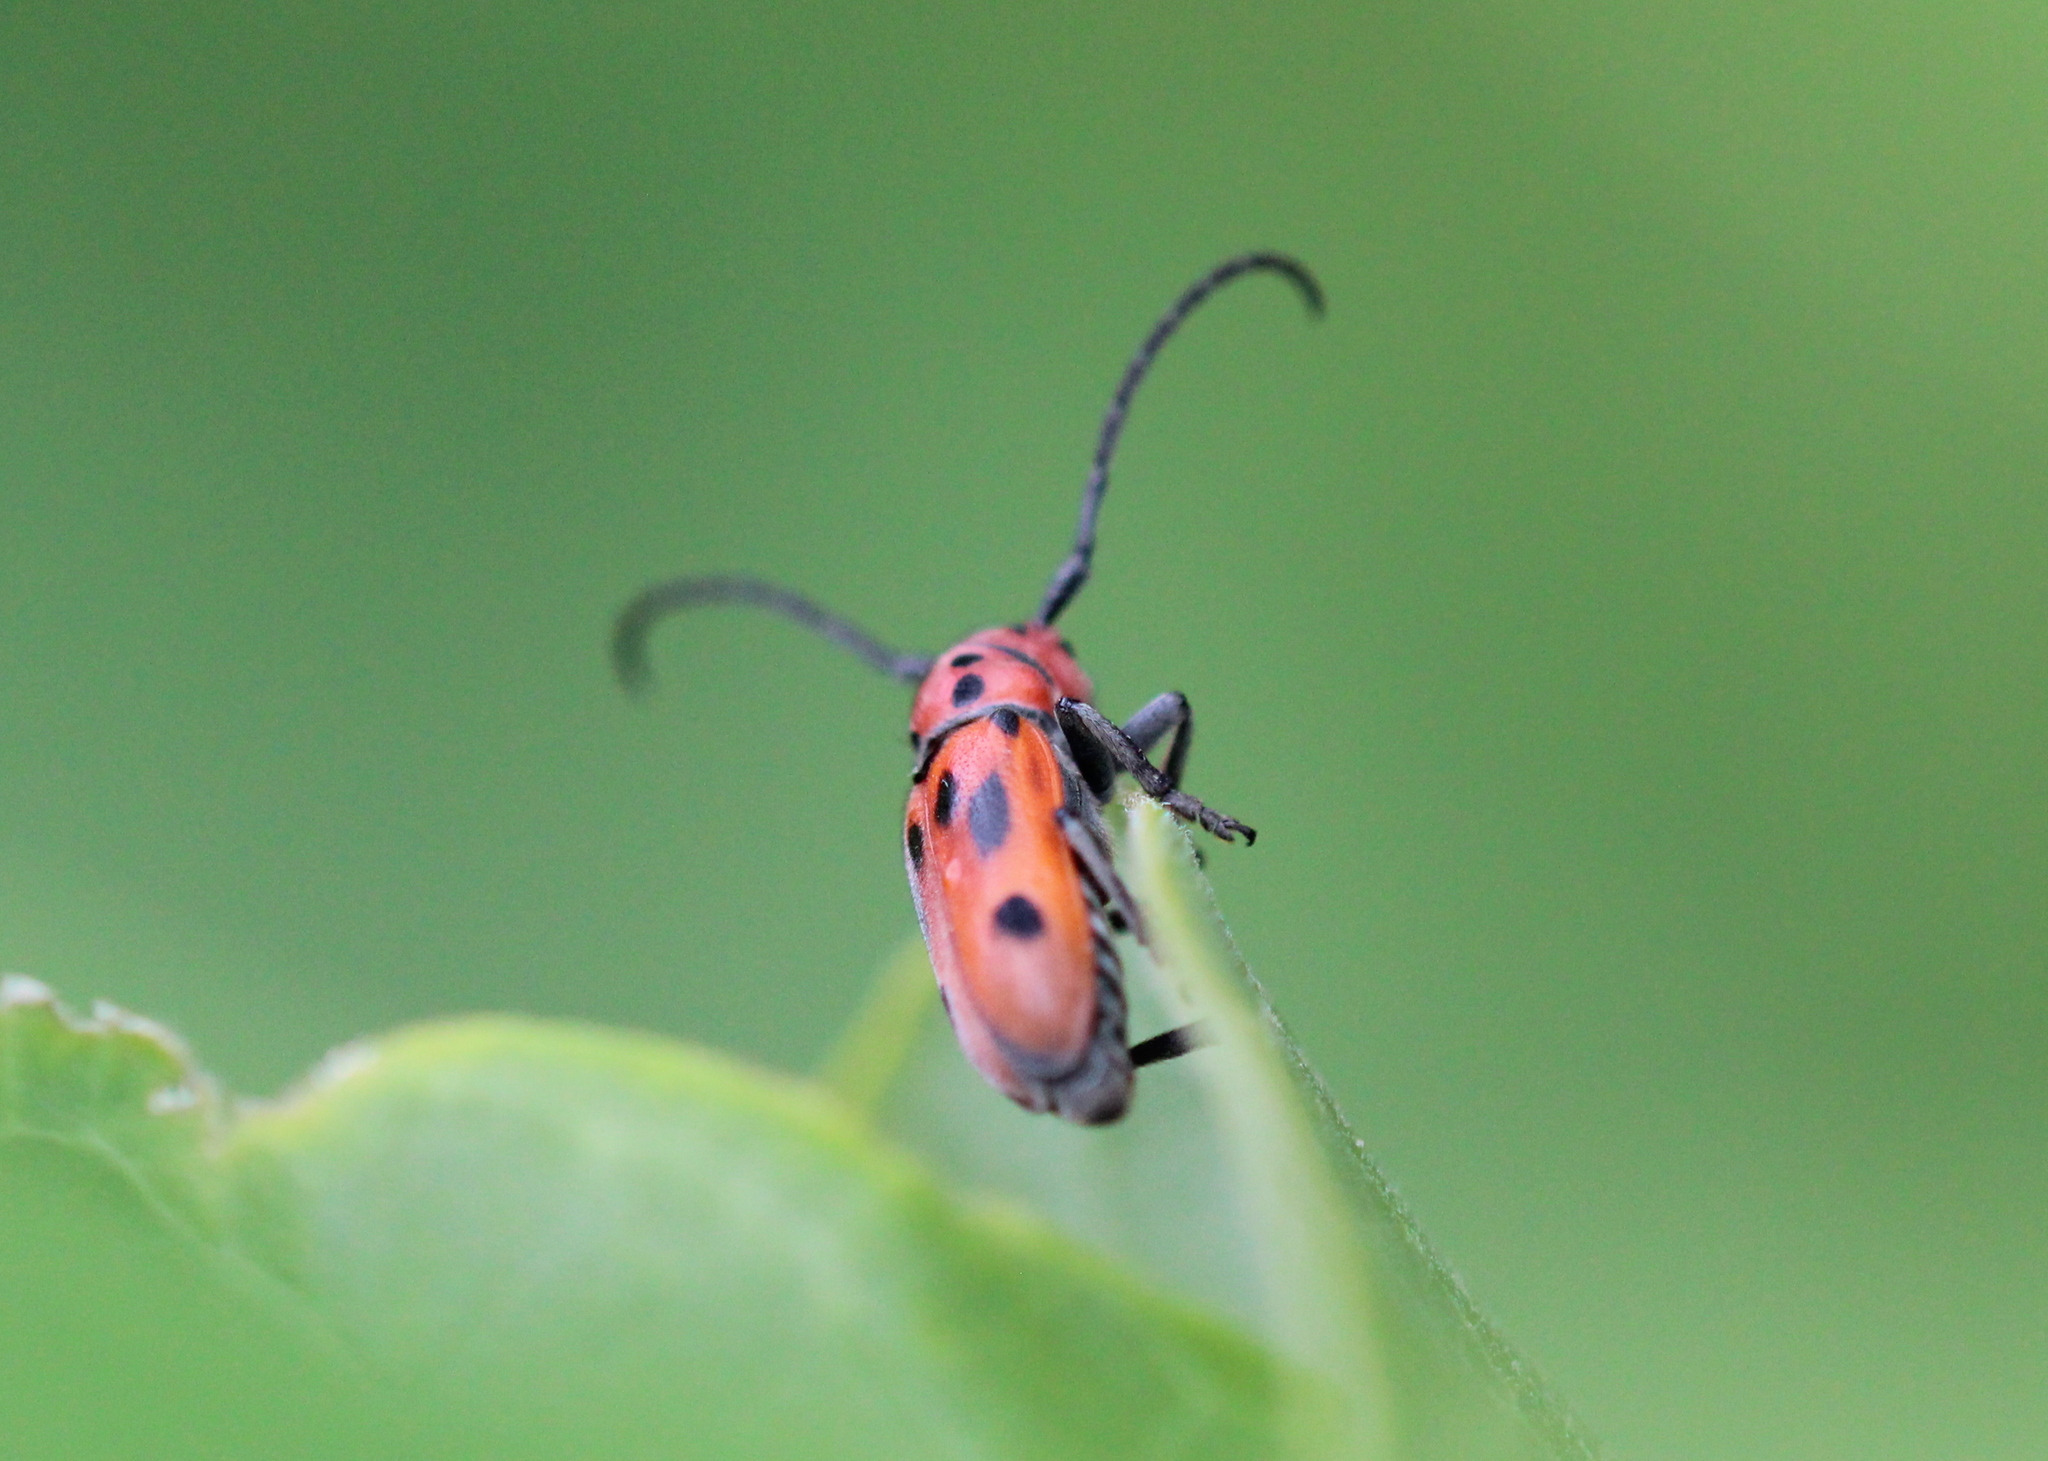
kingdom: Animalia
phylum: Arthropoda
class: Insecta
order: Coleoptera
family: Cerambycidae
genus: Tetraopes
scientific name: Tetraopes tetrophthalmus
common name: Red milkweed beetle
